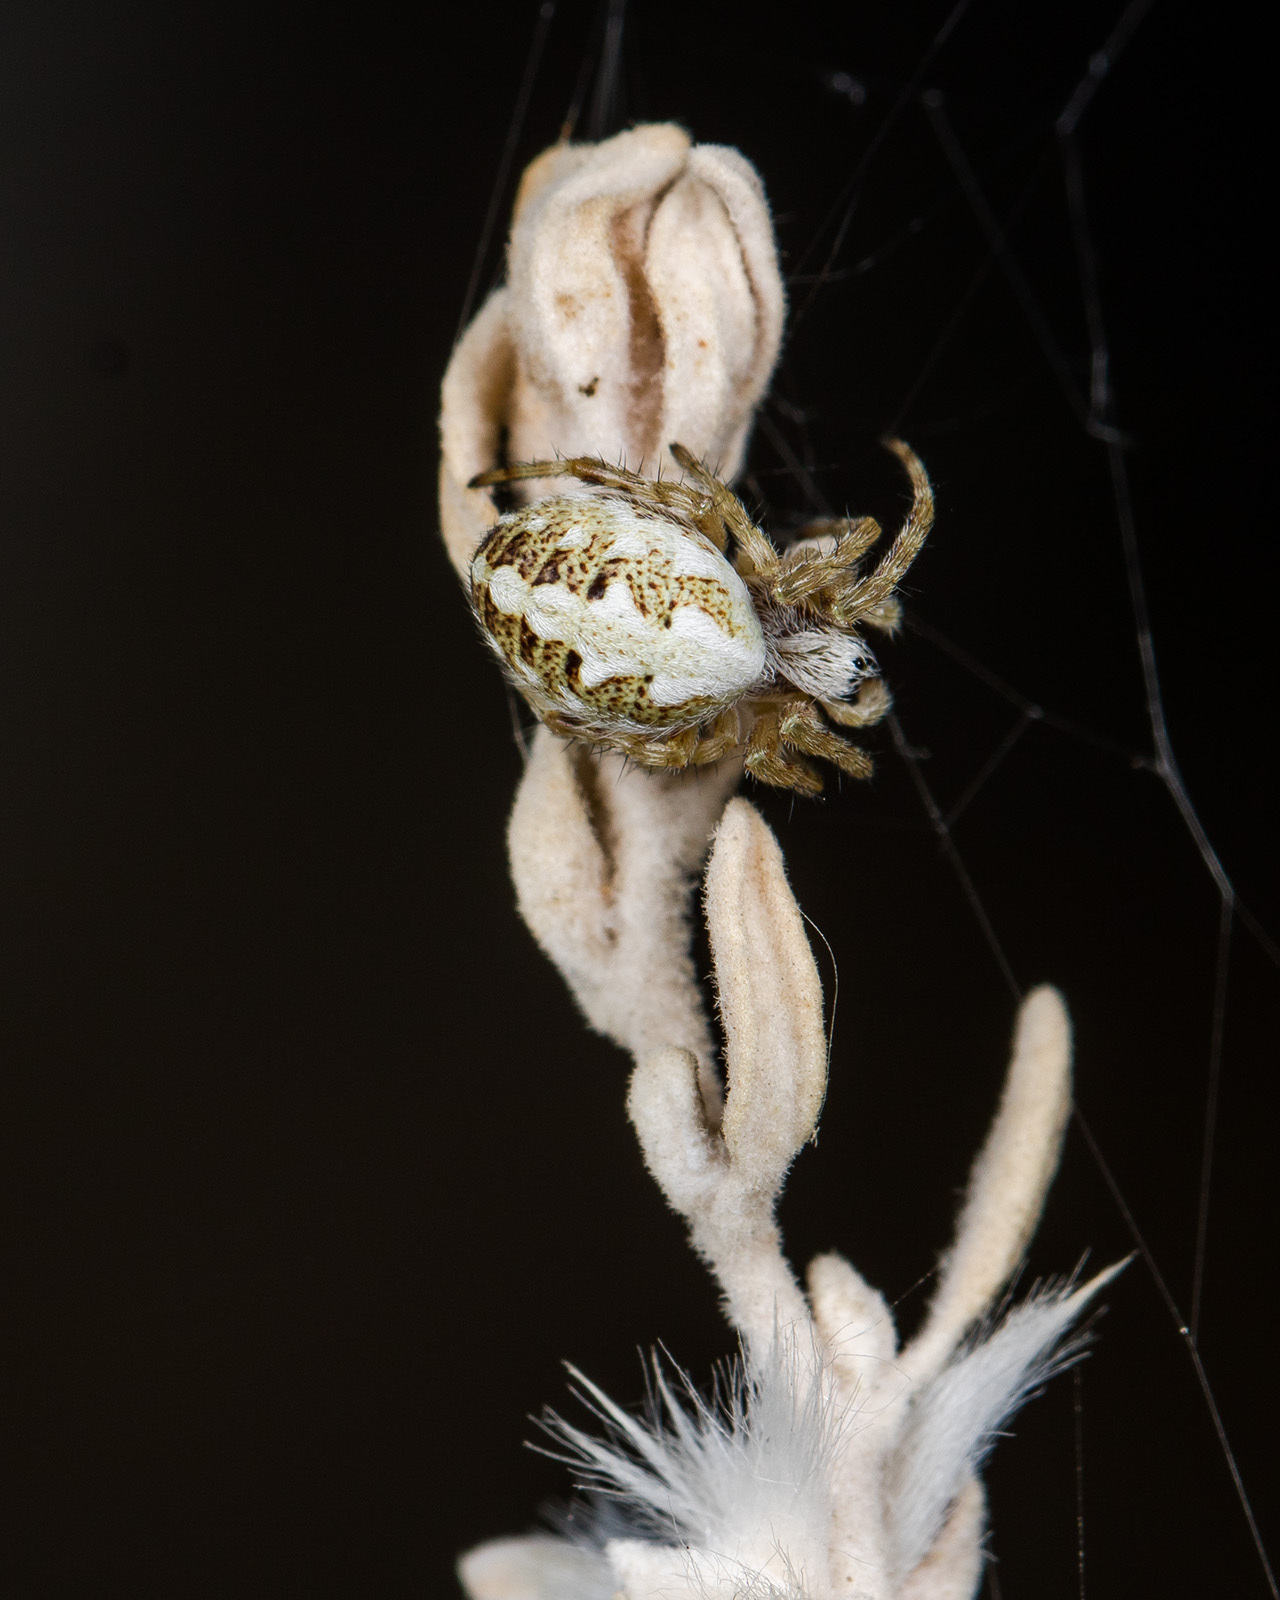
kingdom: Animalia
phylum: Arthropoda
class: Arachnida
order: Araneae
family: Araneidae
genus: Aculepeira
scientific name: Aculepeira armida
